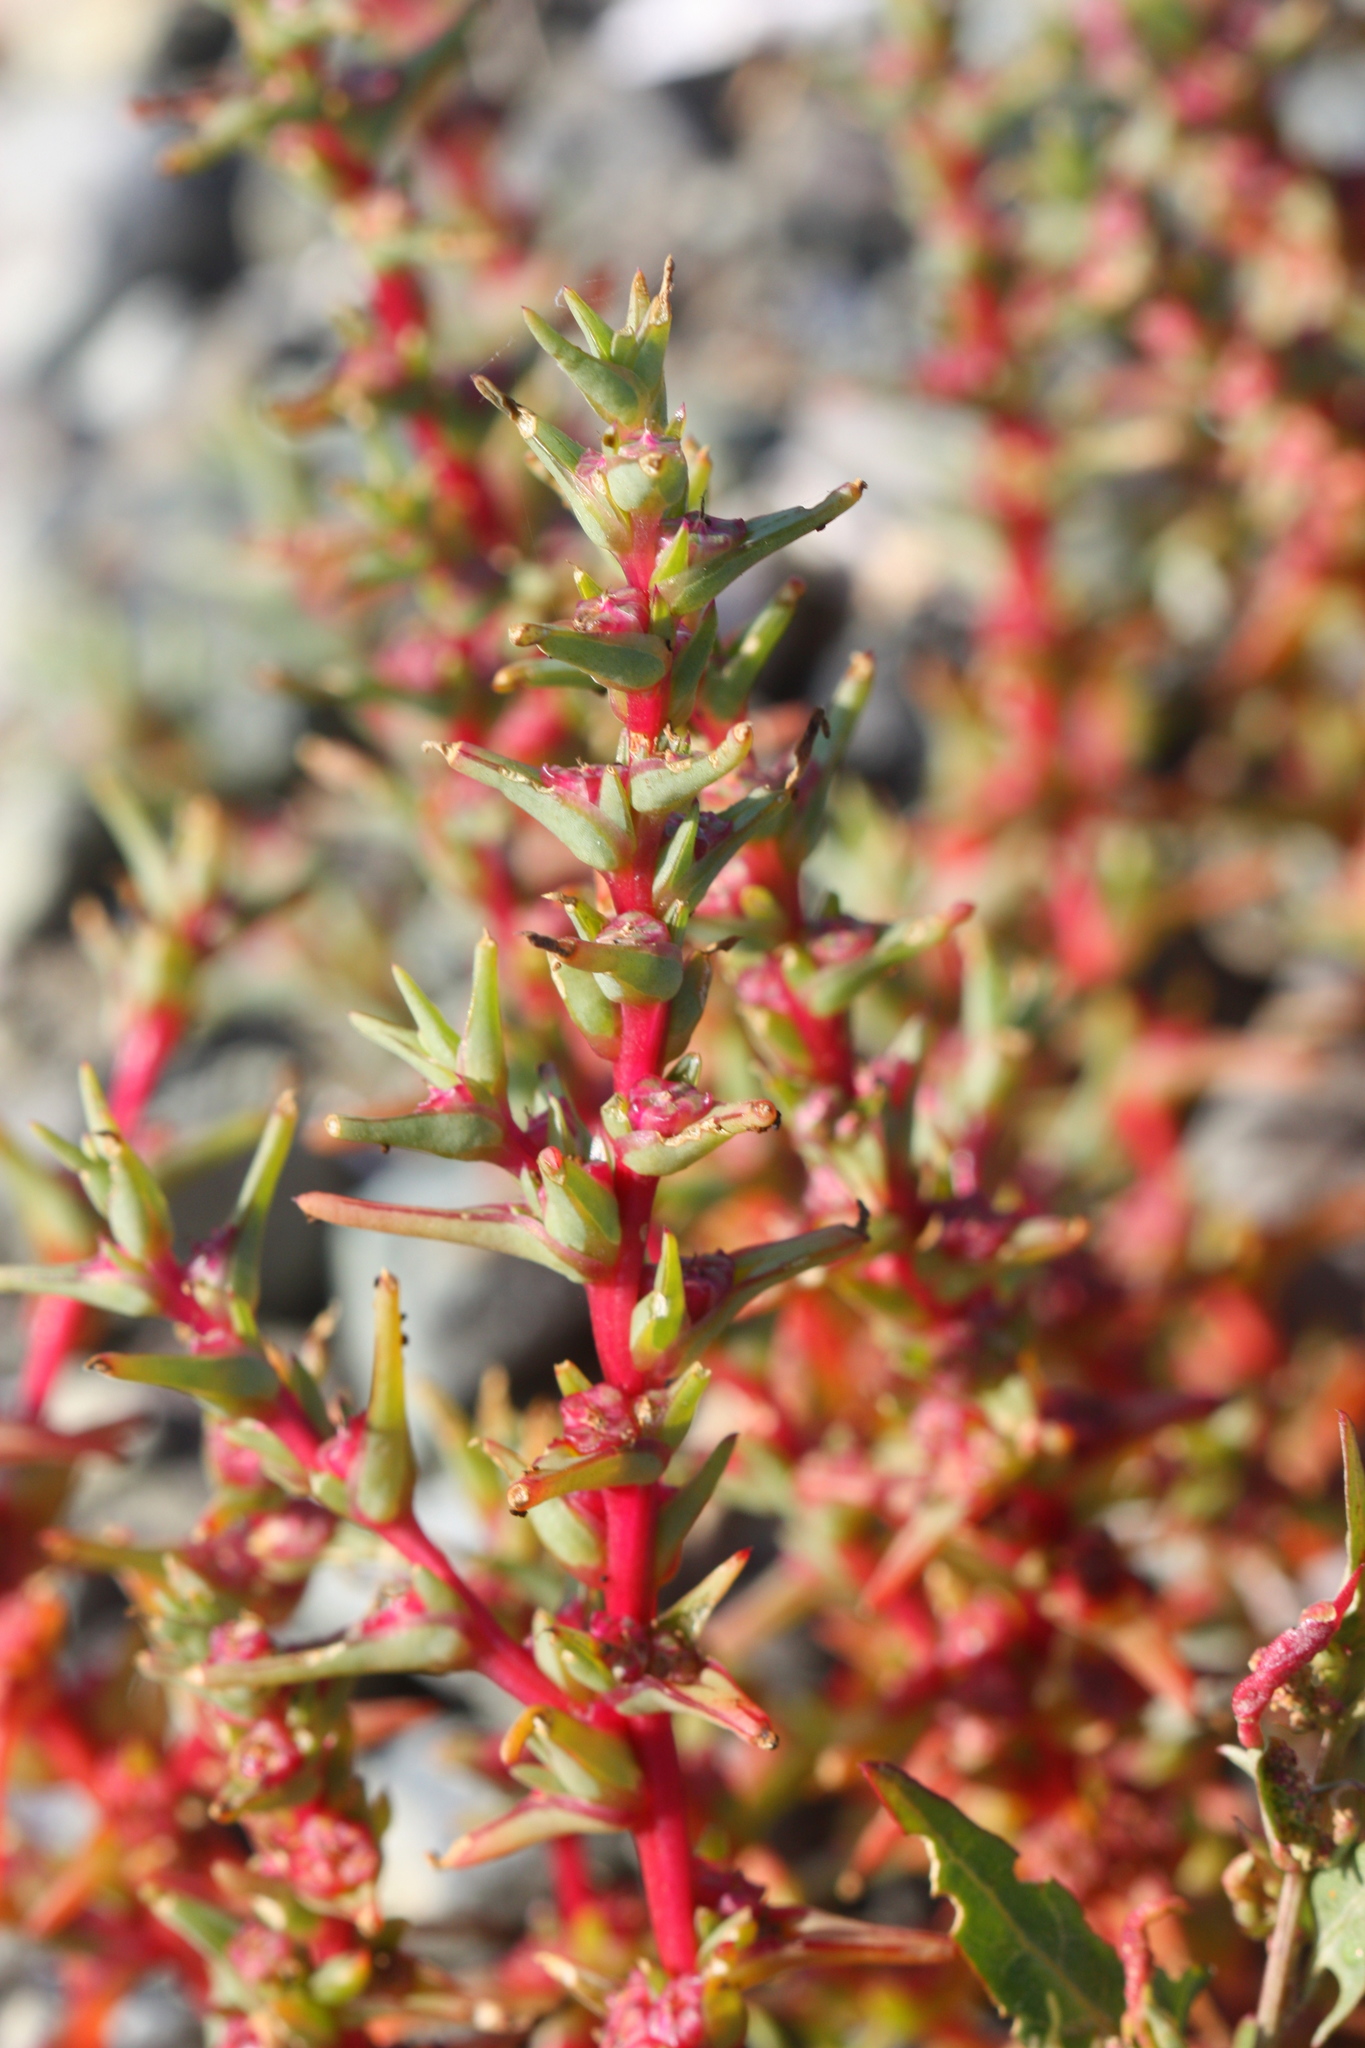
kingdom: Plantae
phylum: Tracheophyta
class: Magnoliopsida
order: Caryophyllales
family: Amaranthaceae
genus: Salsola
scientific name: Salsola soda
